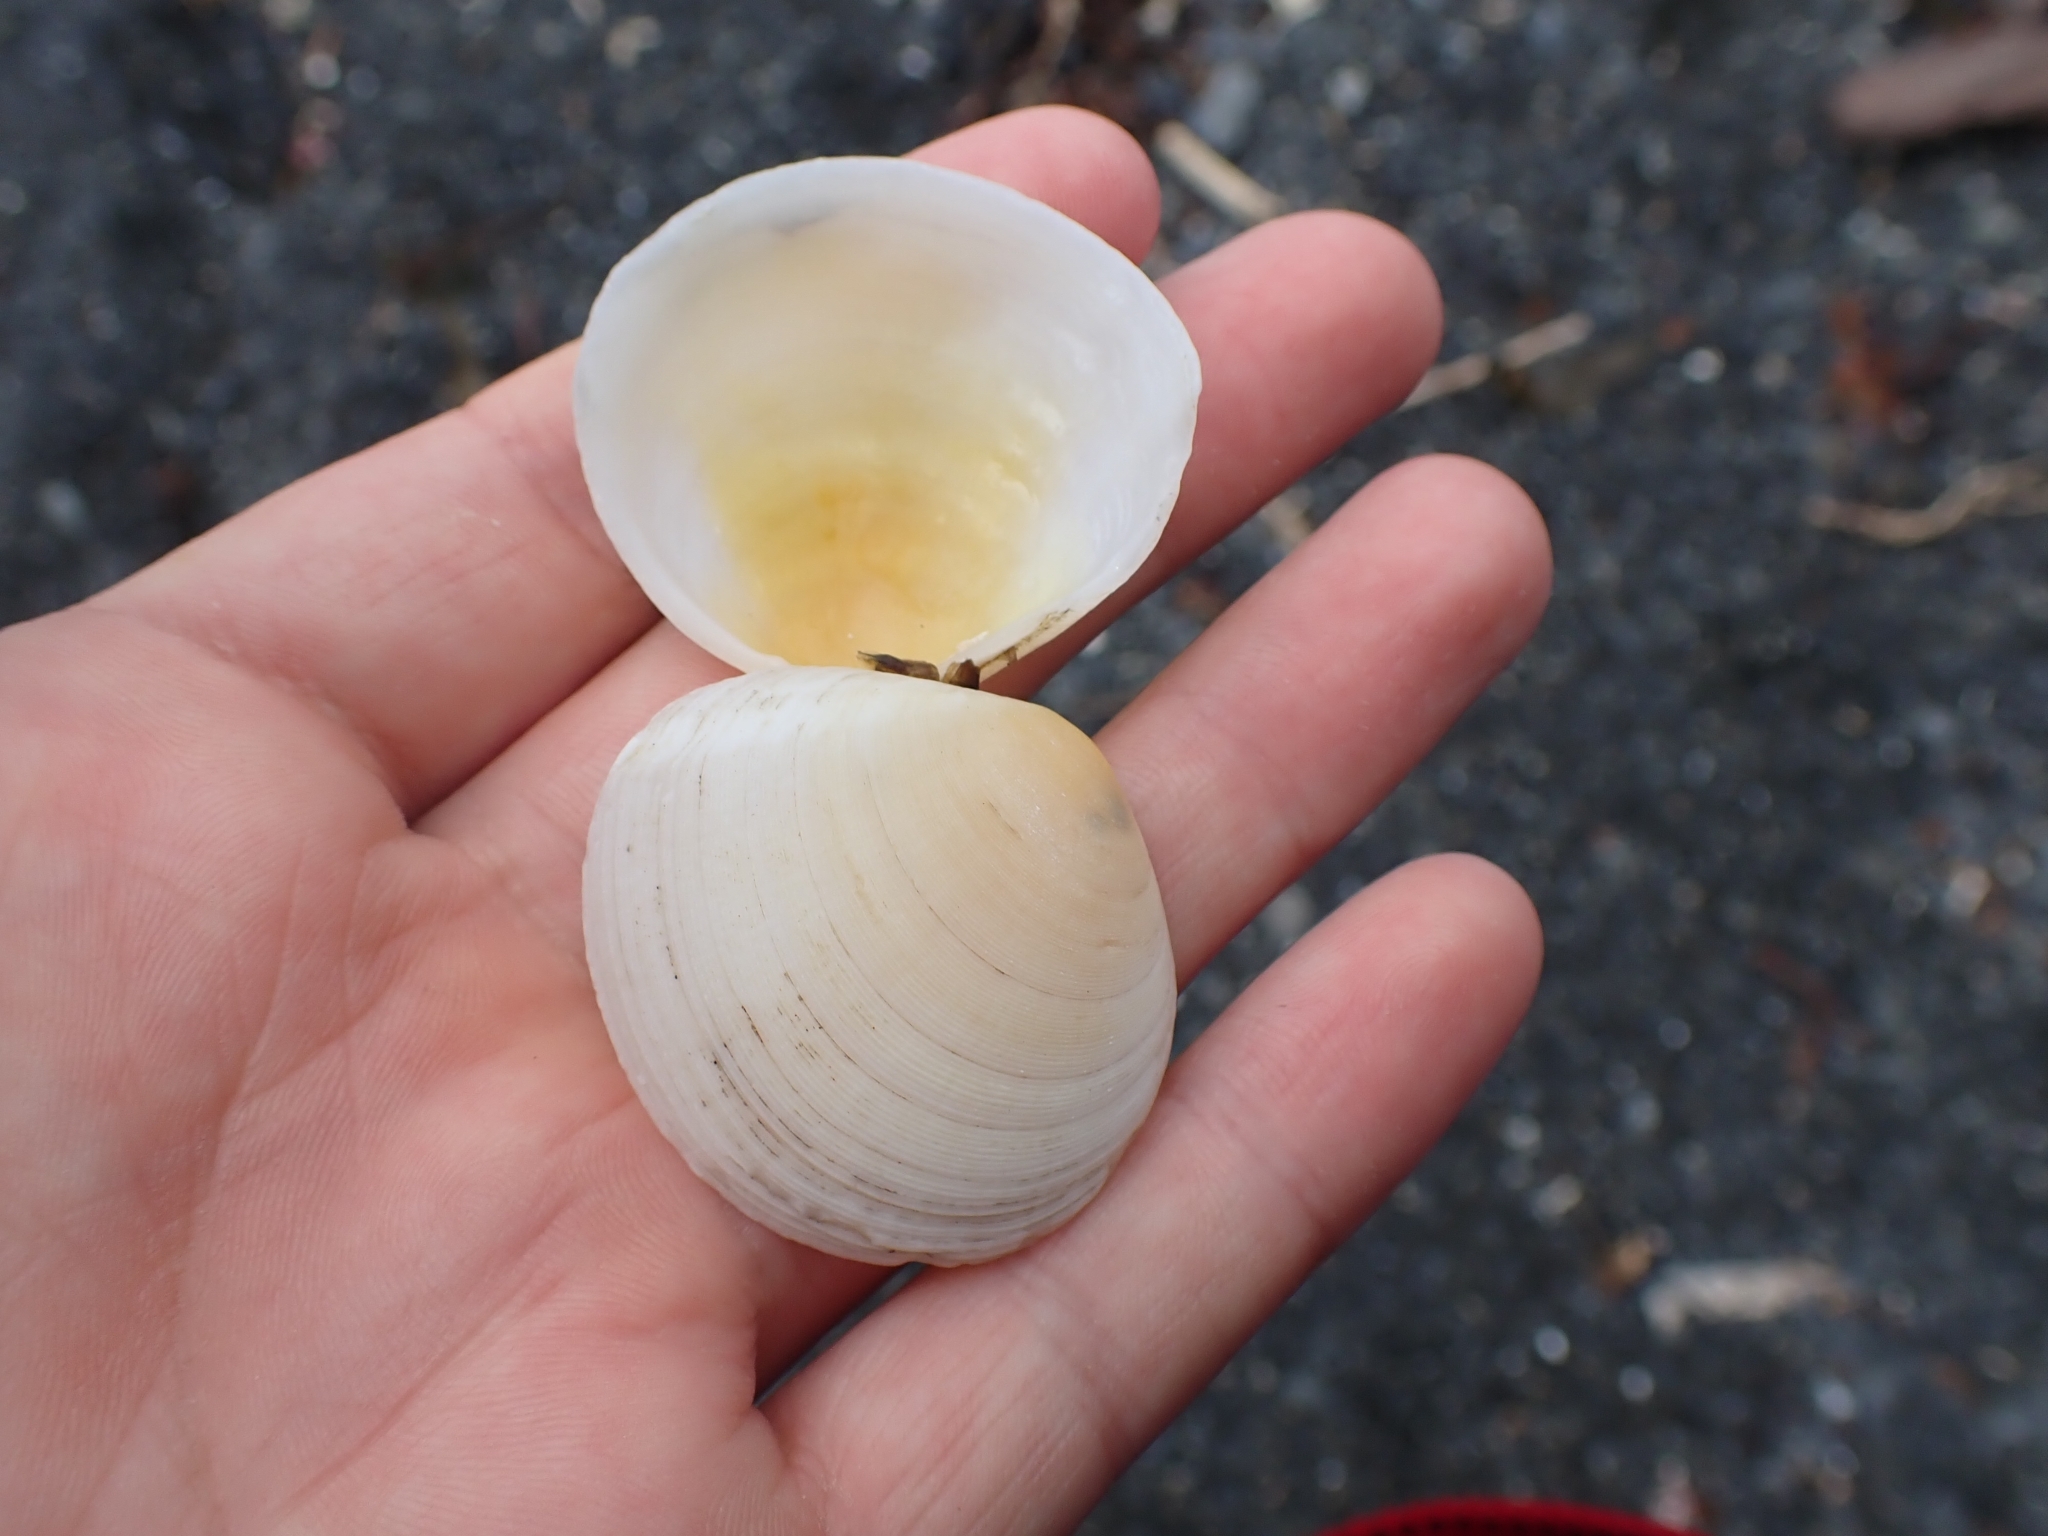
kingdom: Animalia
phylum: Mollusca
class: Bivalvia
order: Cardiida
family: Tellinidae
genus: Pseudarcopagia
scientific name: Pseudarcopagia disculus
